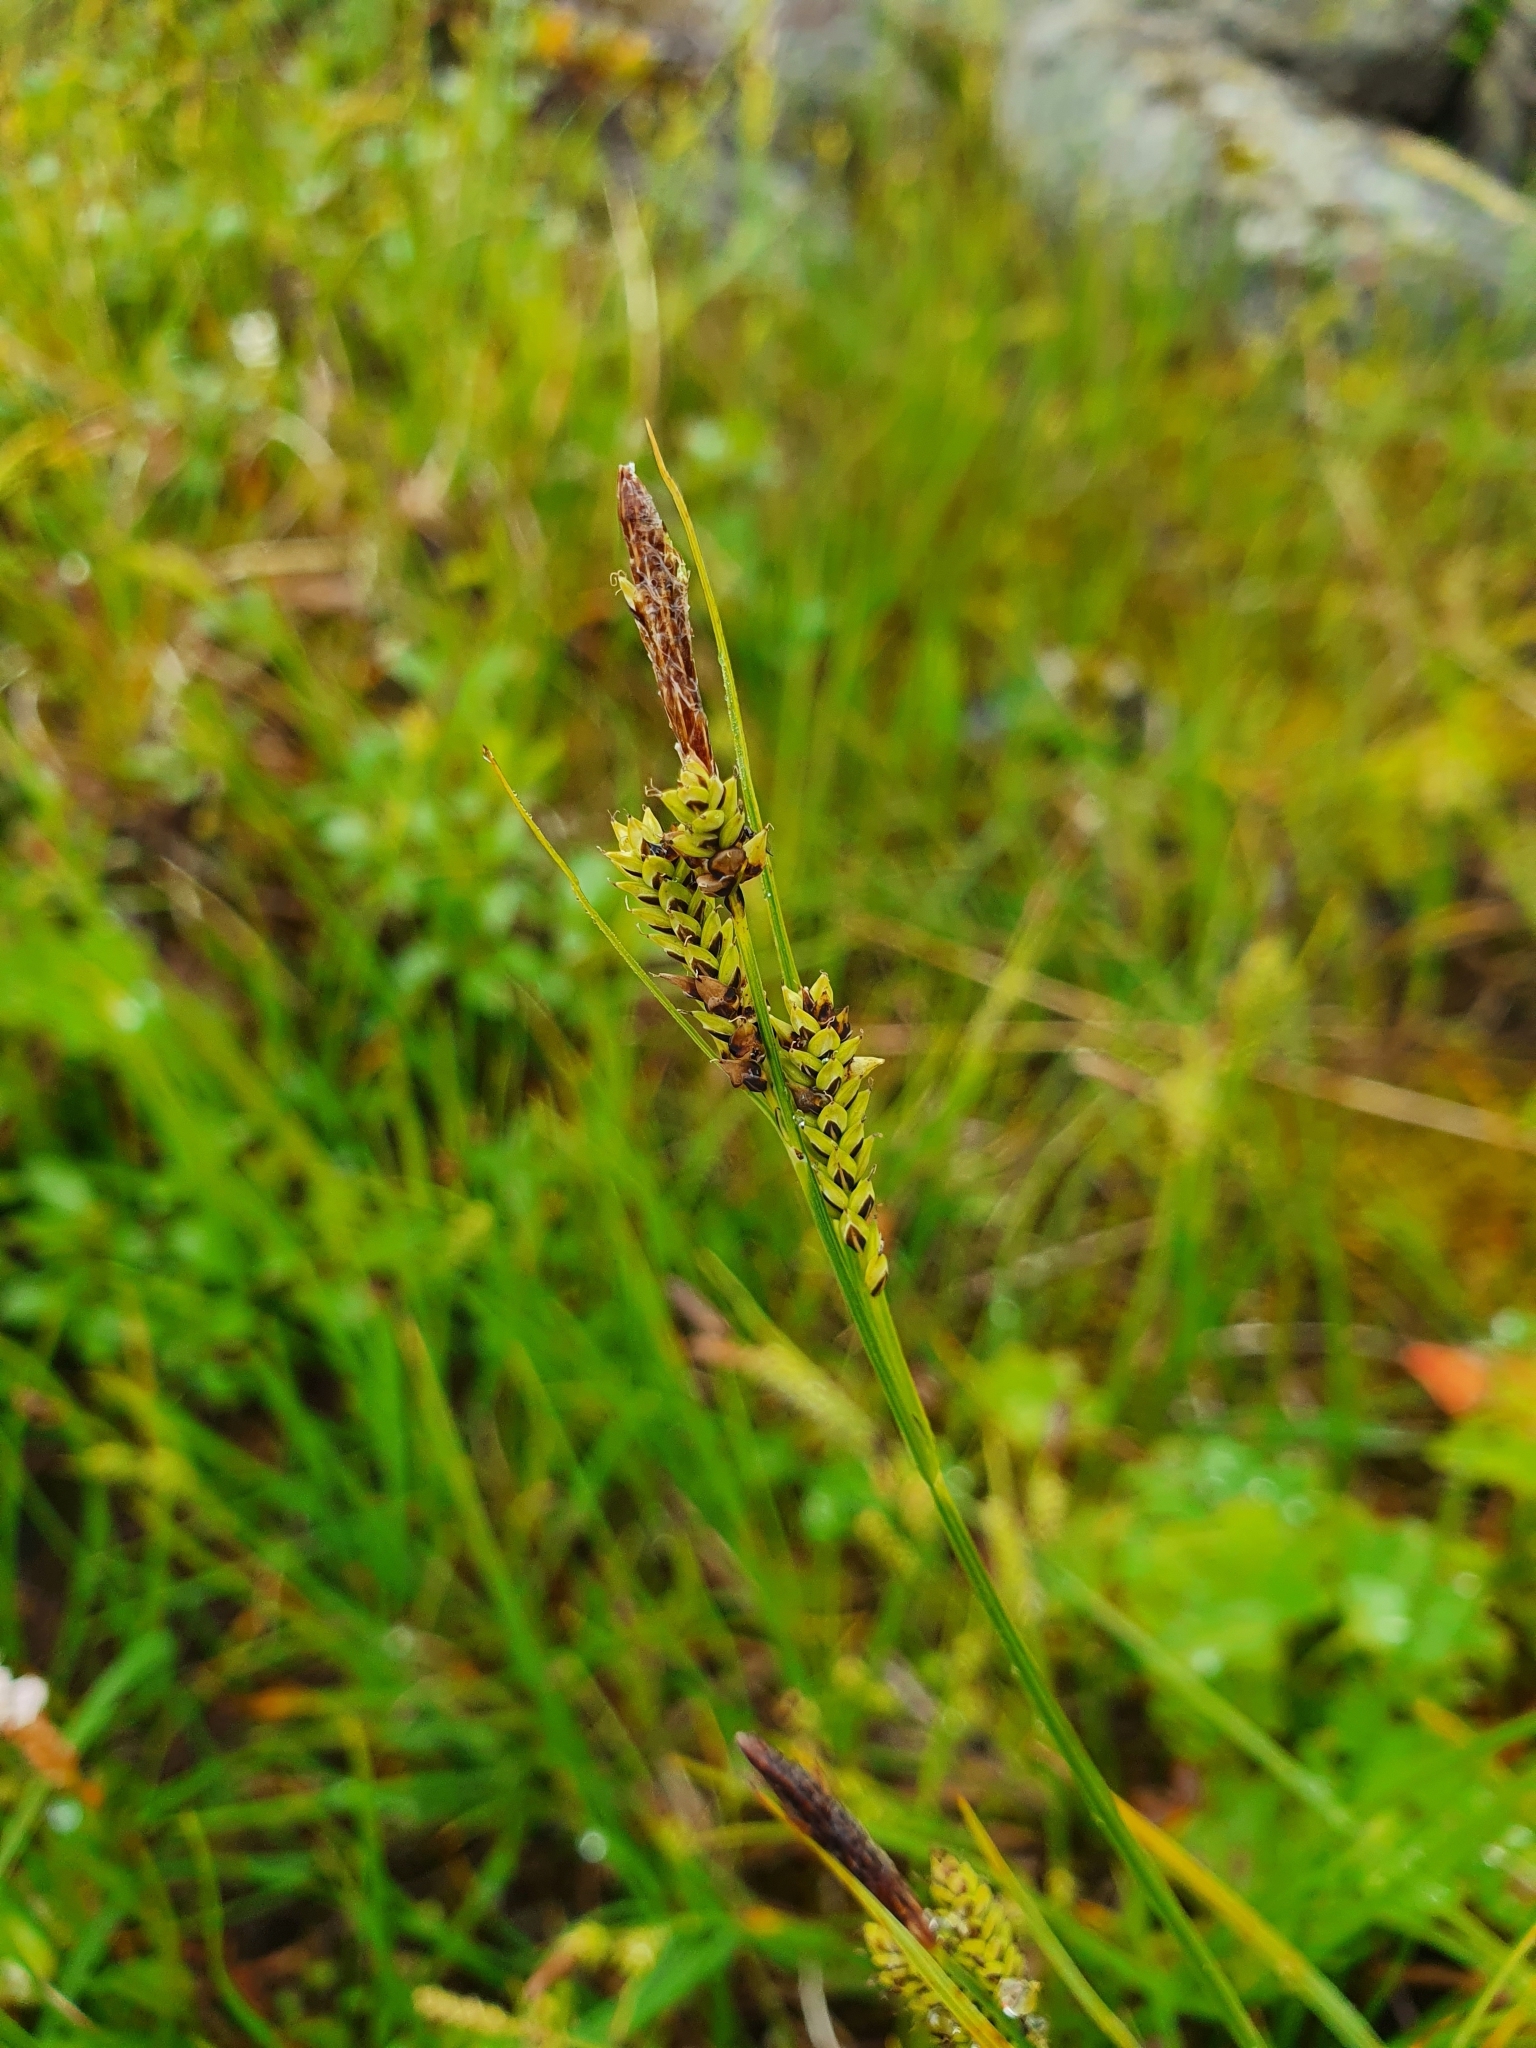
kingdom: Plantae
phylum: Tracheophyta
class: Liliopsida
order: Poales
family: Cyperaceae
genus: Carex
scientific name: Carex nigra
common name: Common sedge
